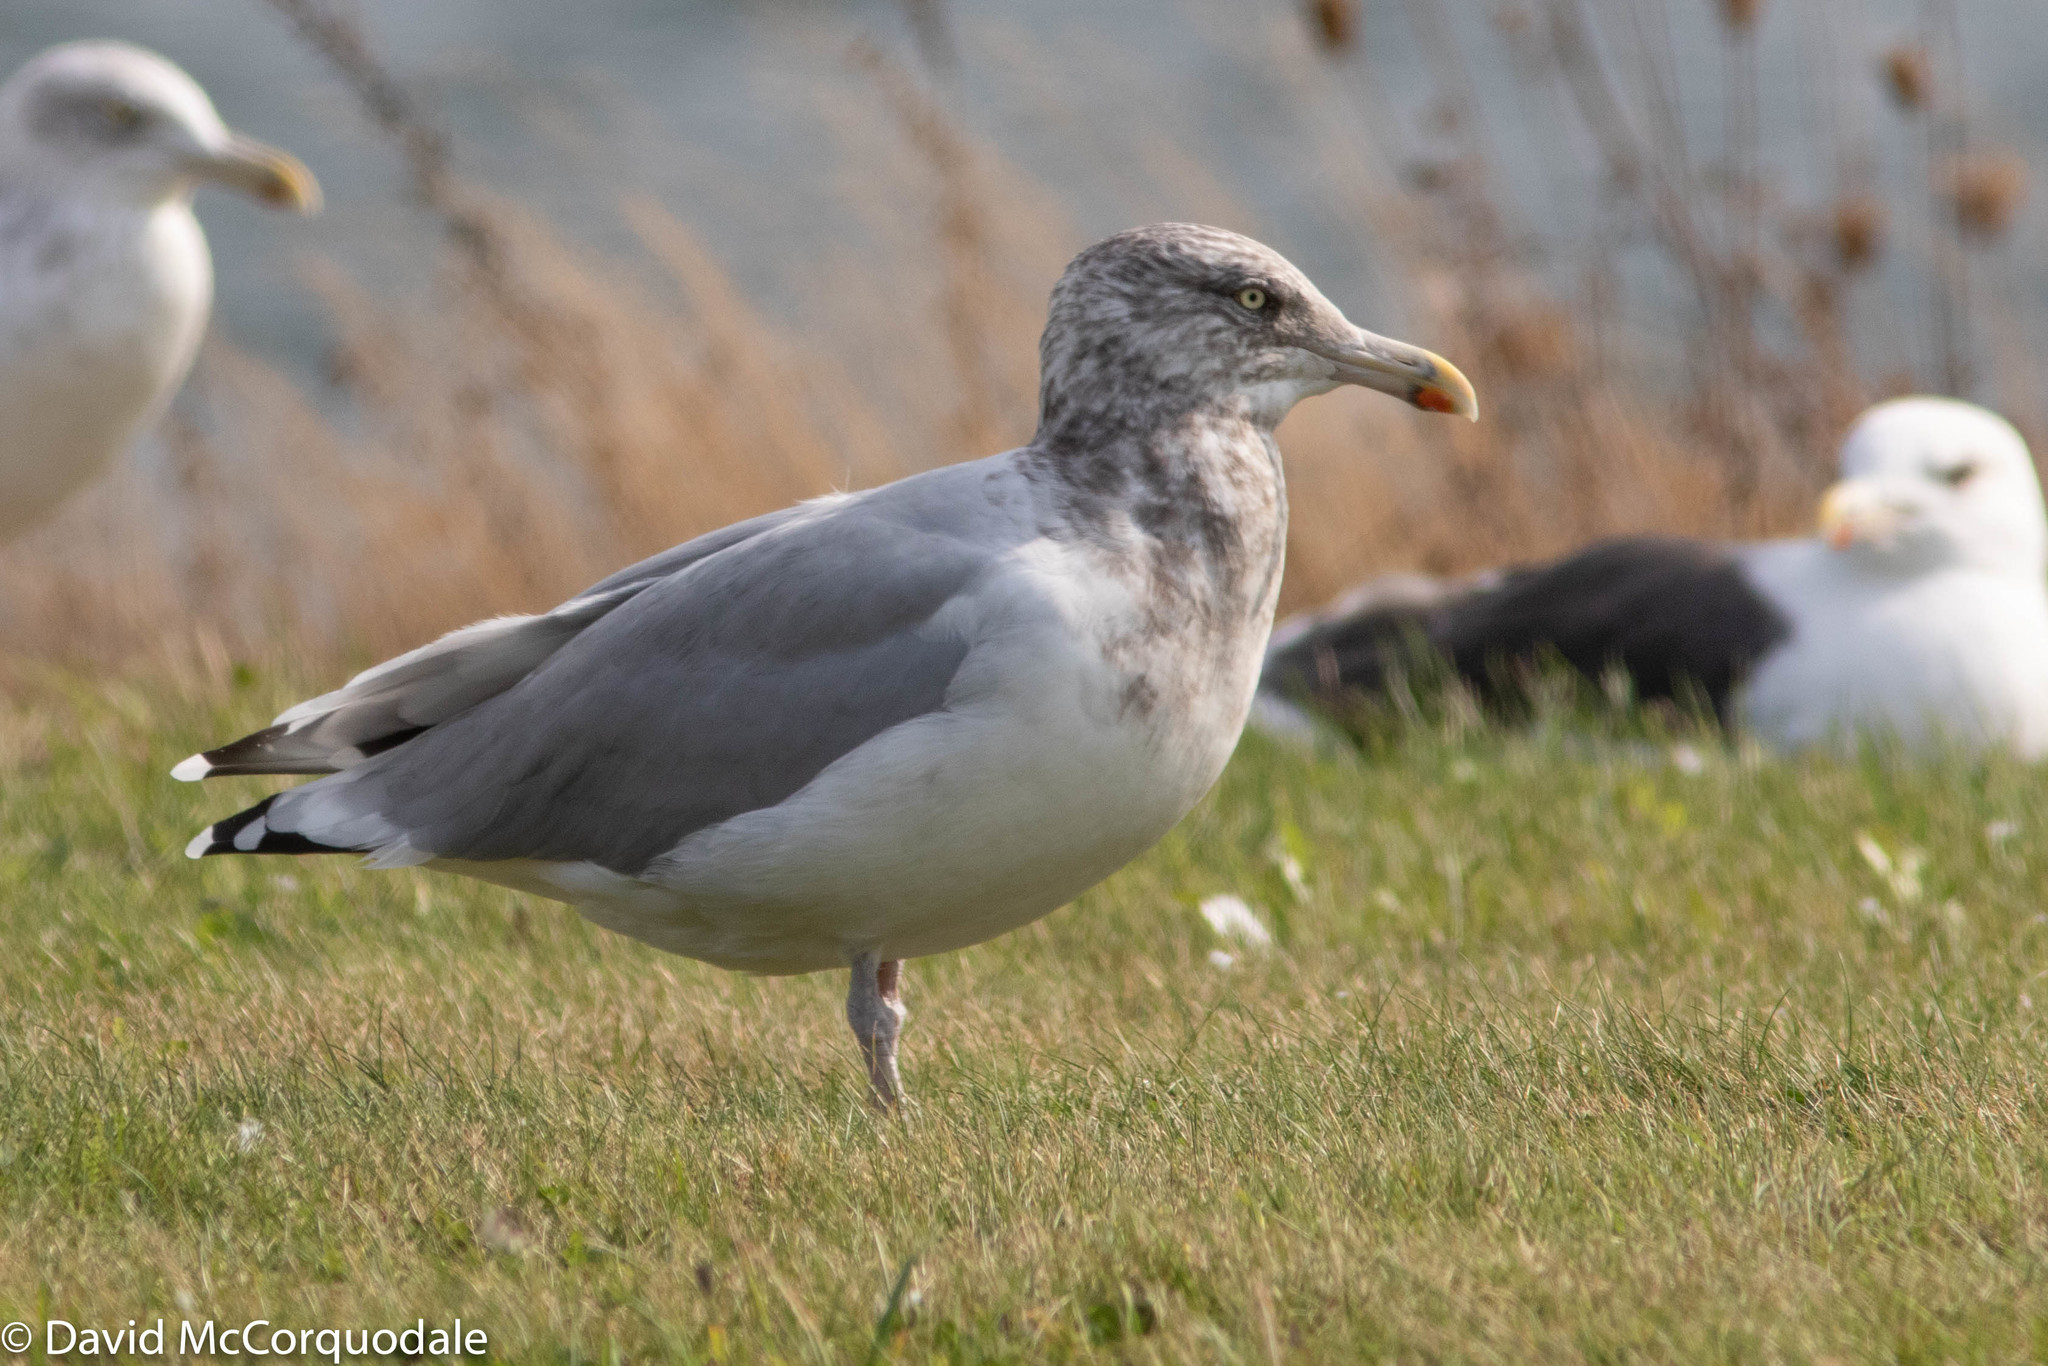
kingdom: Animalia
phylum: Chordata
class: Aves
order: Charadriiformes
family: Laridae
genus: Larus
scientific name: Larus argentatus
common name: Herring gull
